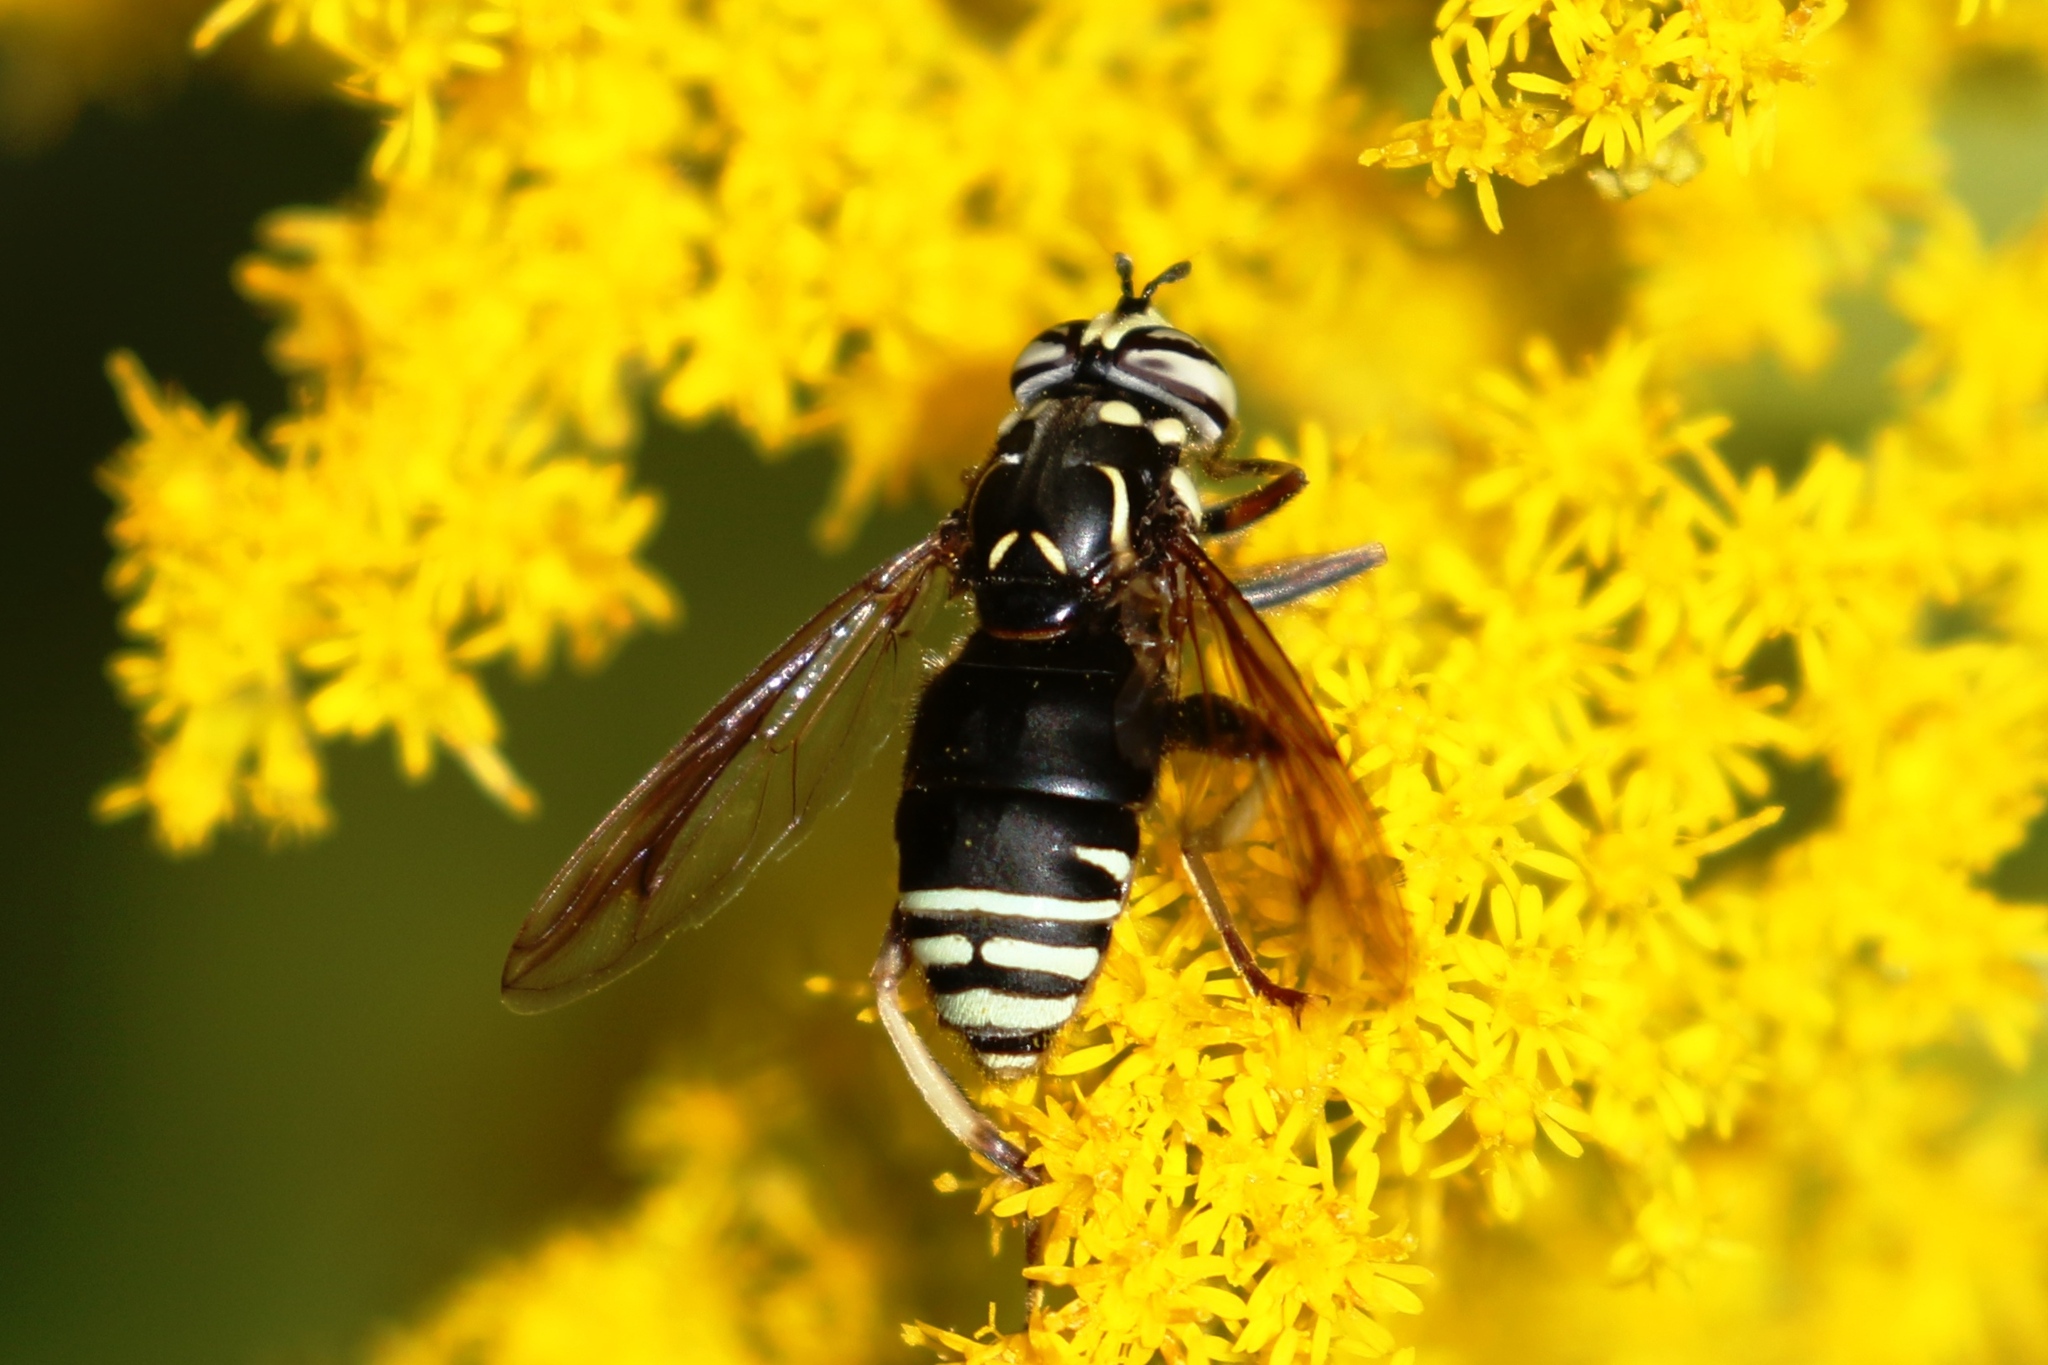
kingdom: Animalia
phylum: Arthropoda
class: Insecta
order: Diptera
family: Syrphidae
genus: Spilomyia
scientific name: Spilomyia fusca
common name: Bald-faced hornet fly
